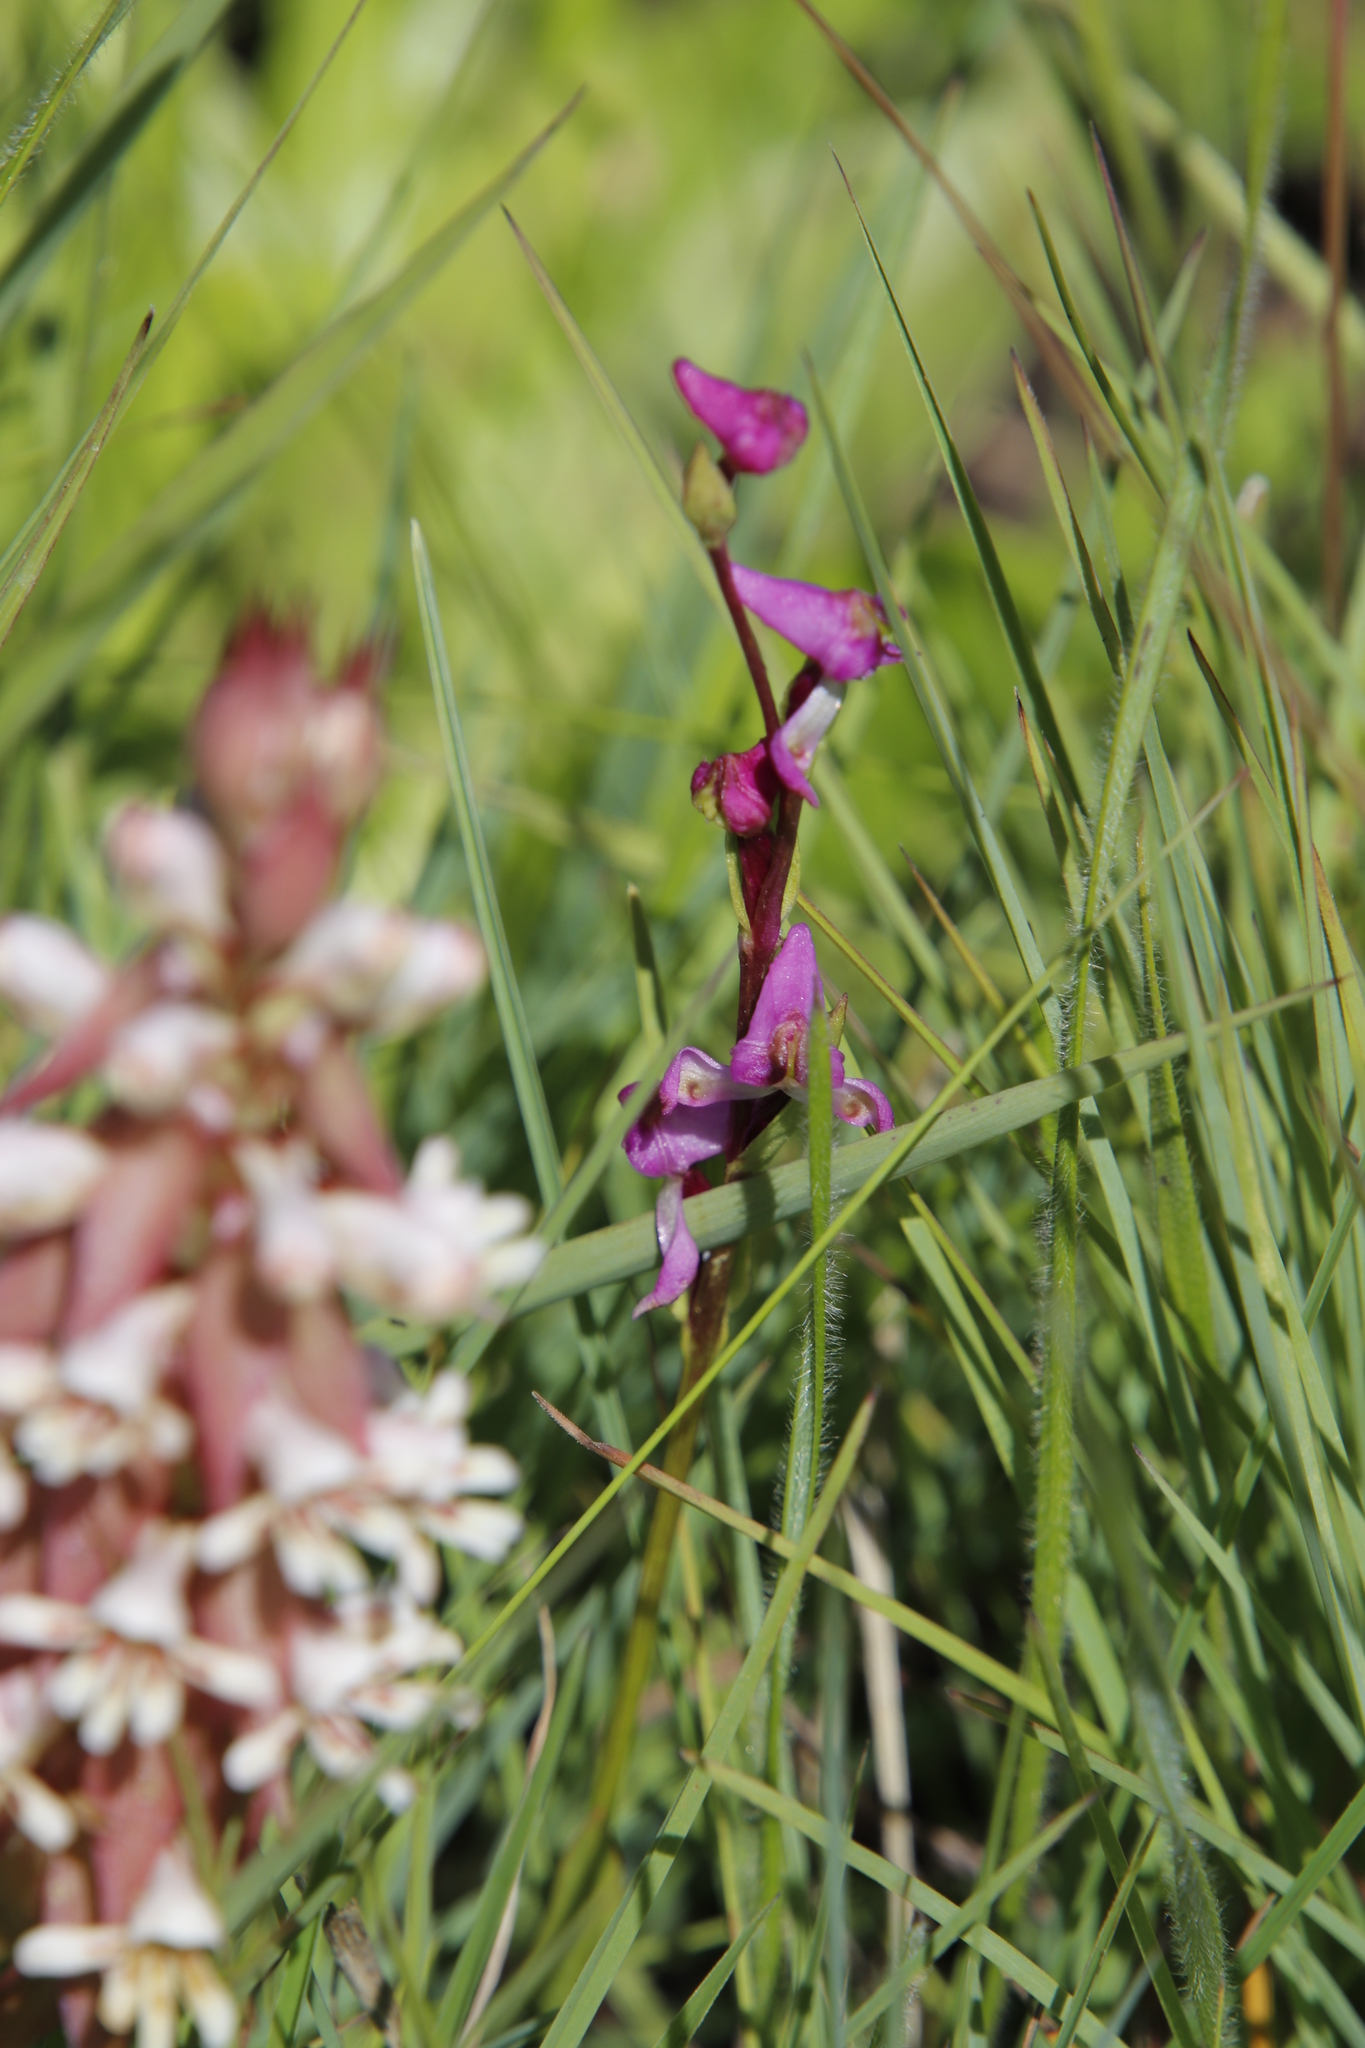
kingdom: Plantae
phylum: Tracheophyta
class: Liliopsida
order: Asparagales
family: Orchidaceae
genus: Disperis
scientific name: Disperis tysonii
